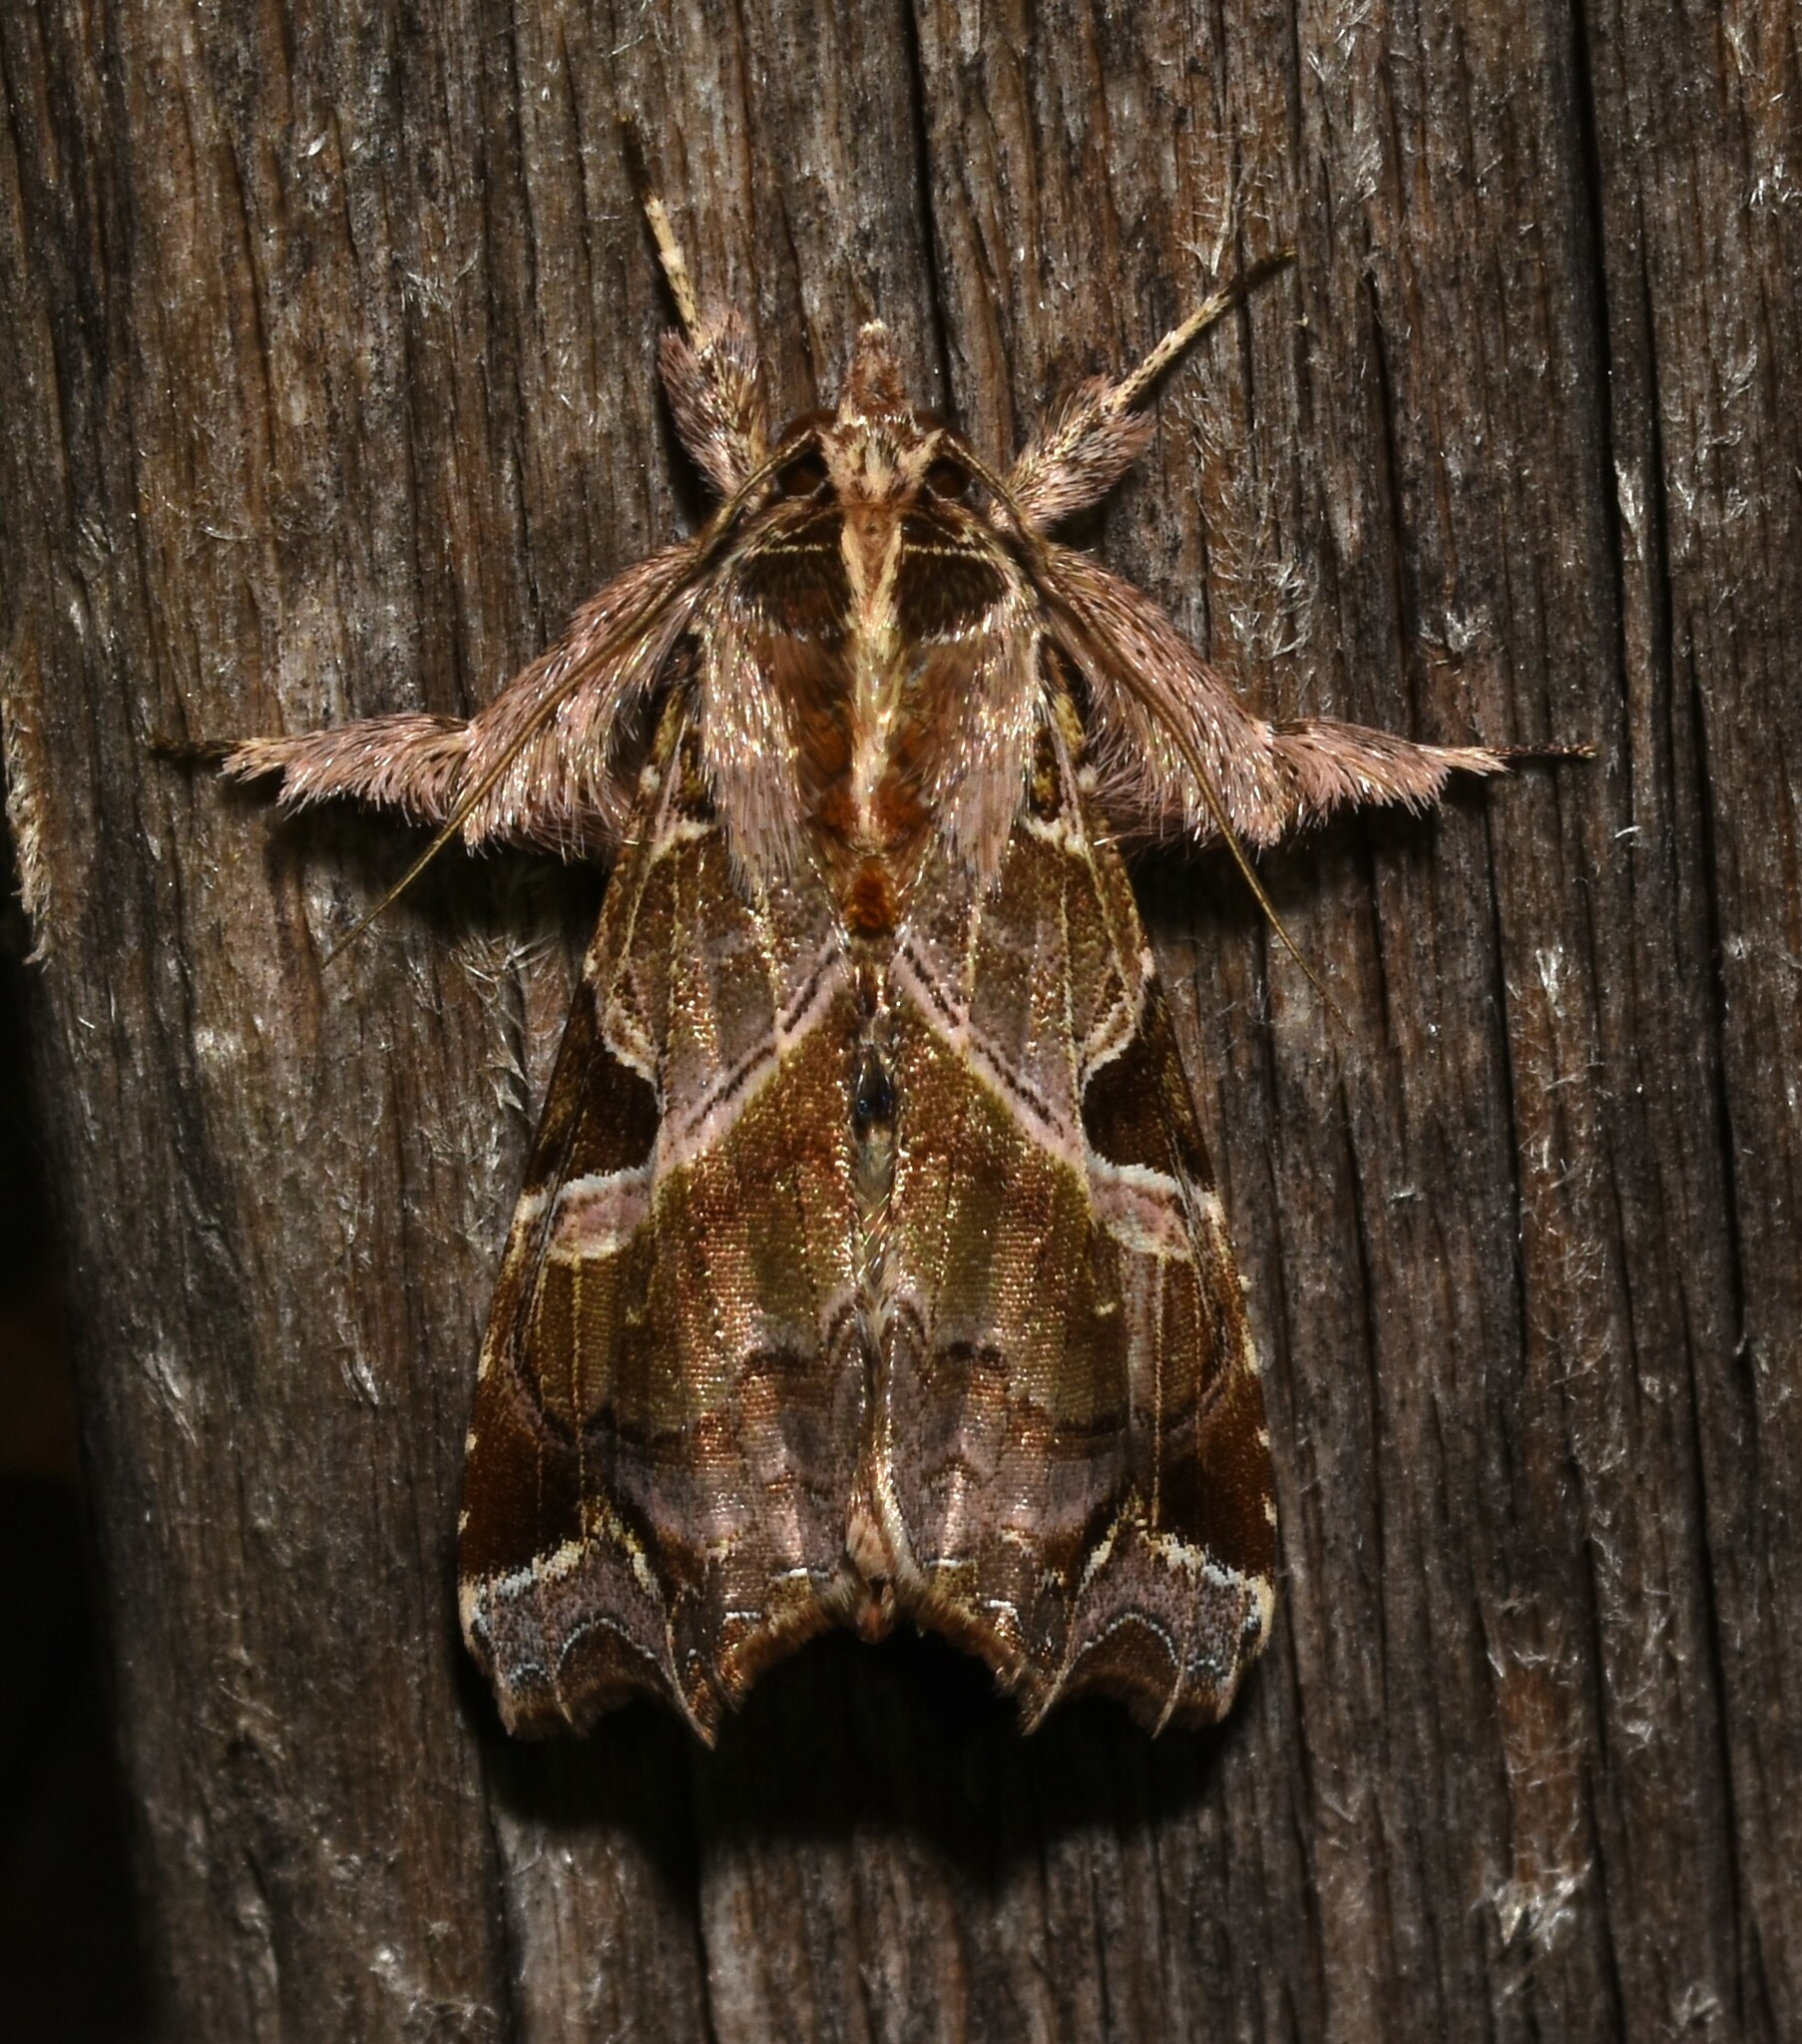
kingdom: Animalia
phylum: Arthropoda
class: Insecta
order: Lepidoptera
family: Noctuidae
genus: Callopistria
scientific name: Callopistria floridensis
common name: Florida fern moth
